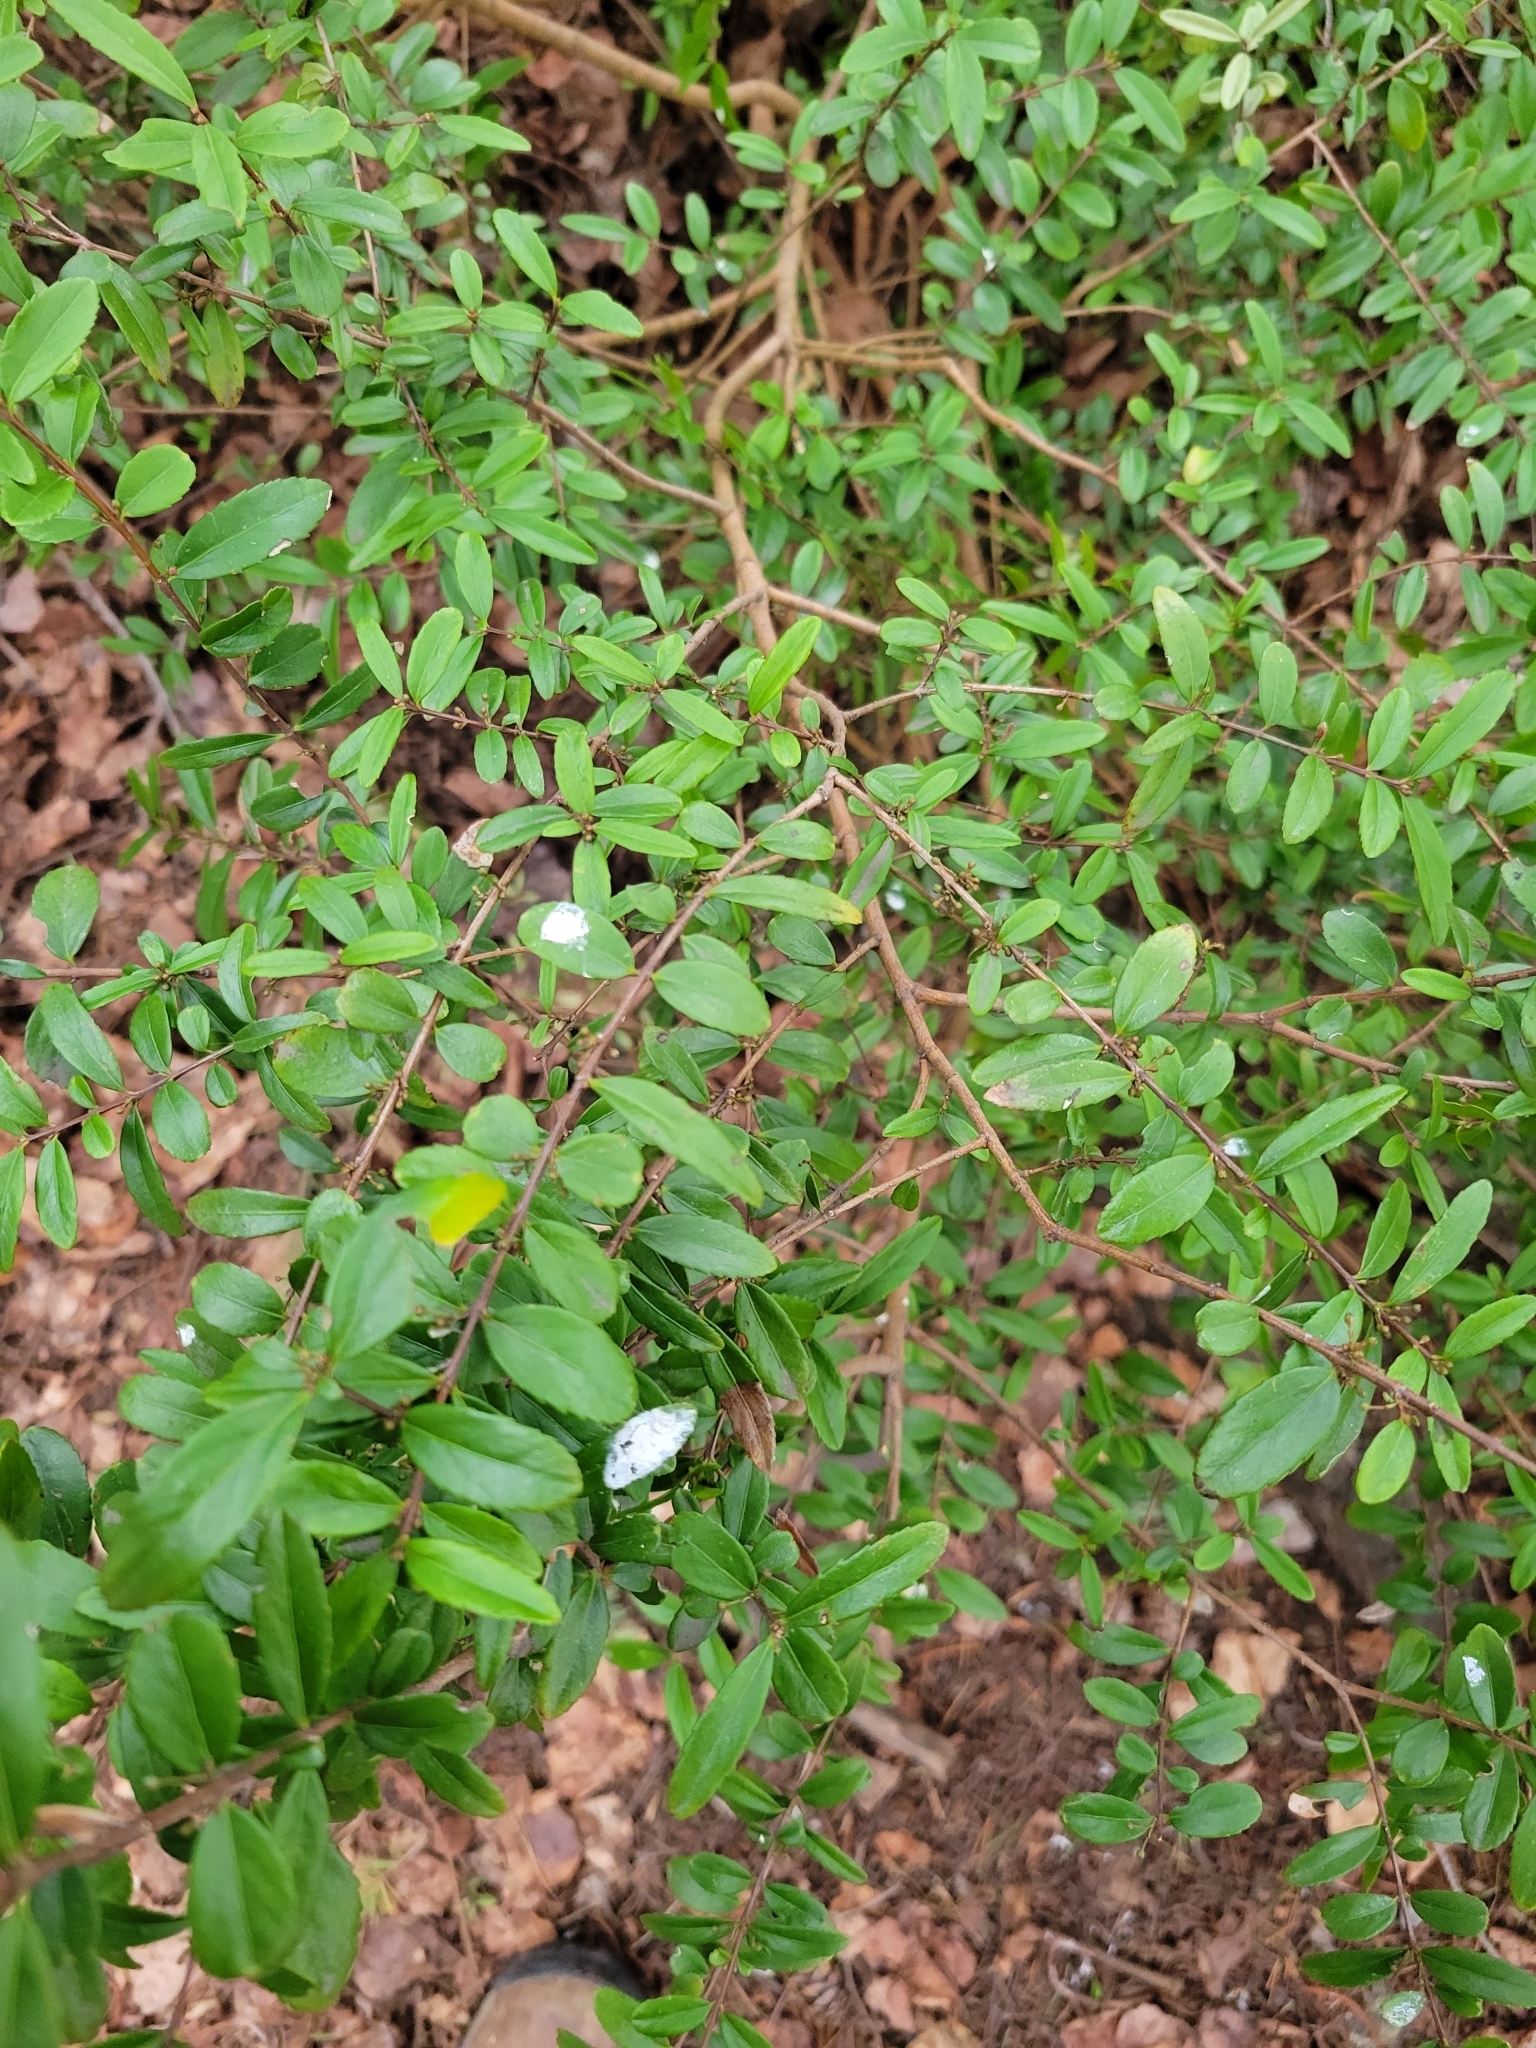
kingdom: Plantae
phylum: Tracheophyta
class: Magnoliopsida
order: Celastrales
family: Celastraceae
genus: Paxistima
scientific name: Paxistima myrsinites
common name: Mountain-lover
